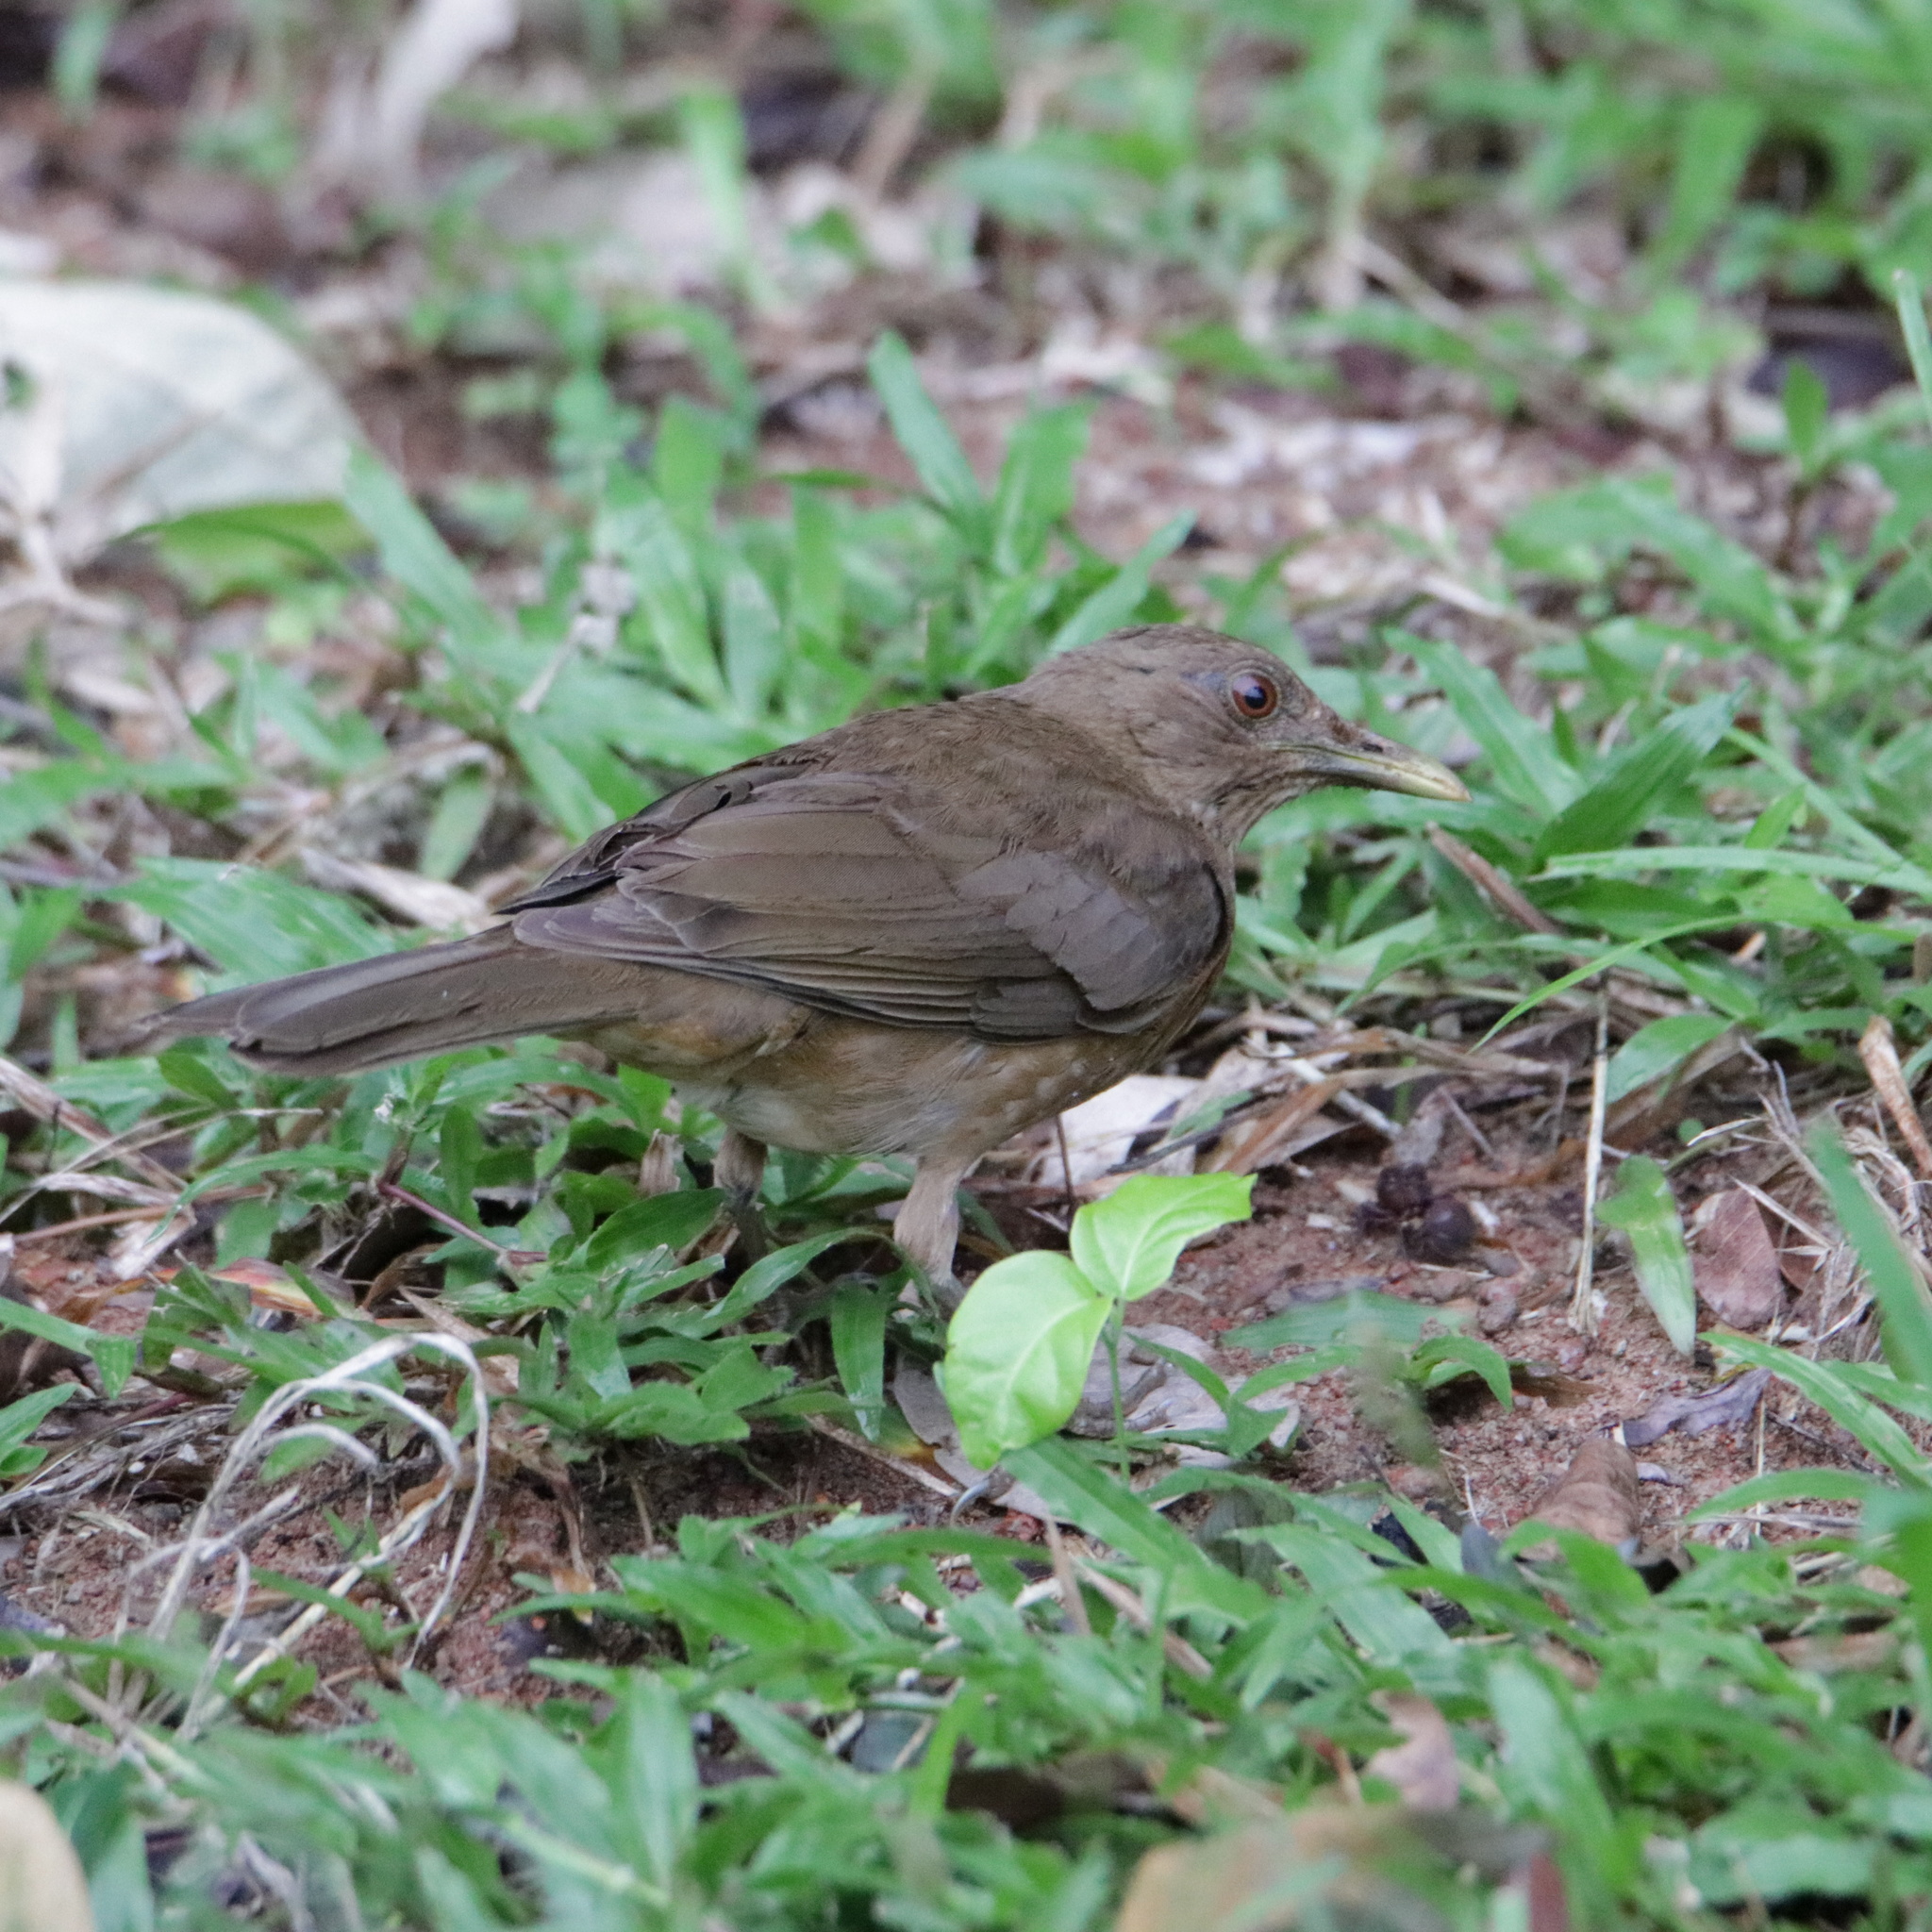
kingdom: Animalia
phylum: Chordata
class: Aves
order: Passeriformes
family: Turdidae
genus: Turdus
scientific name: Turdus grayi
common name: Clay-colored thrush
